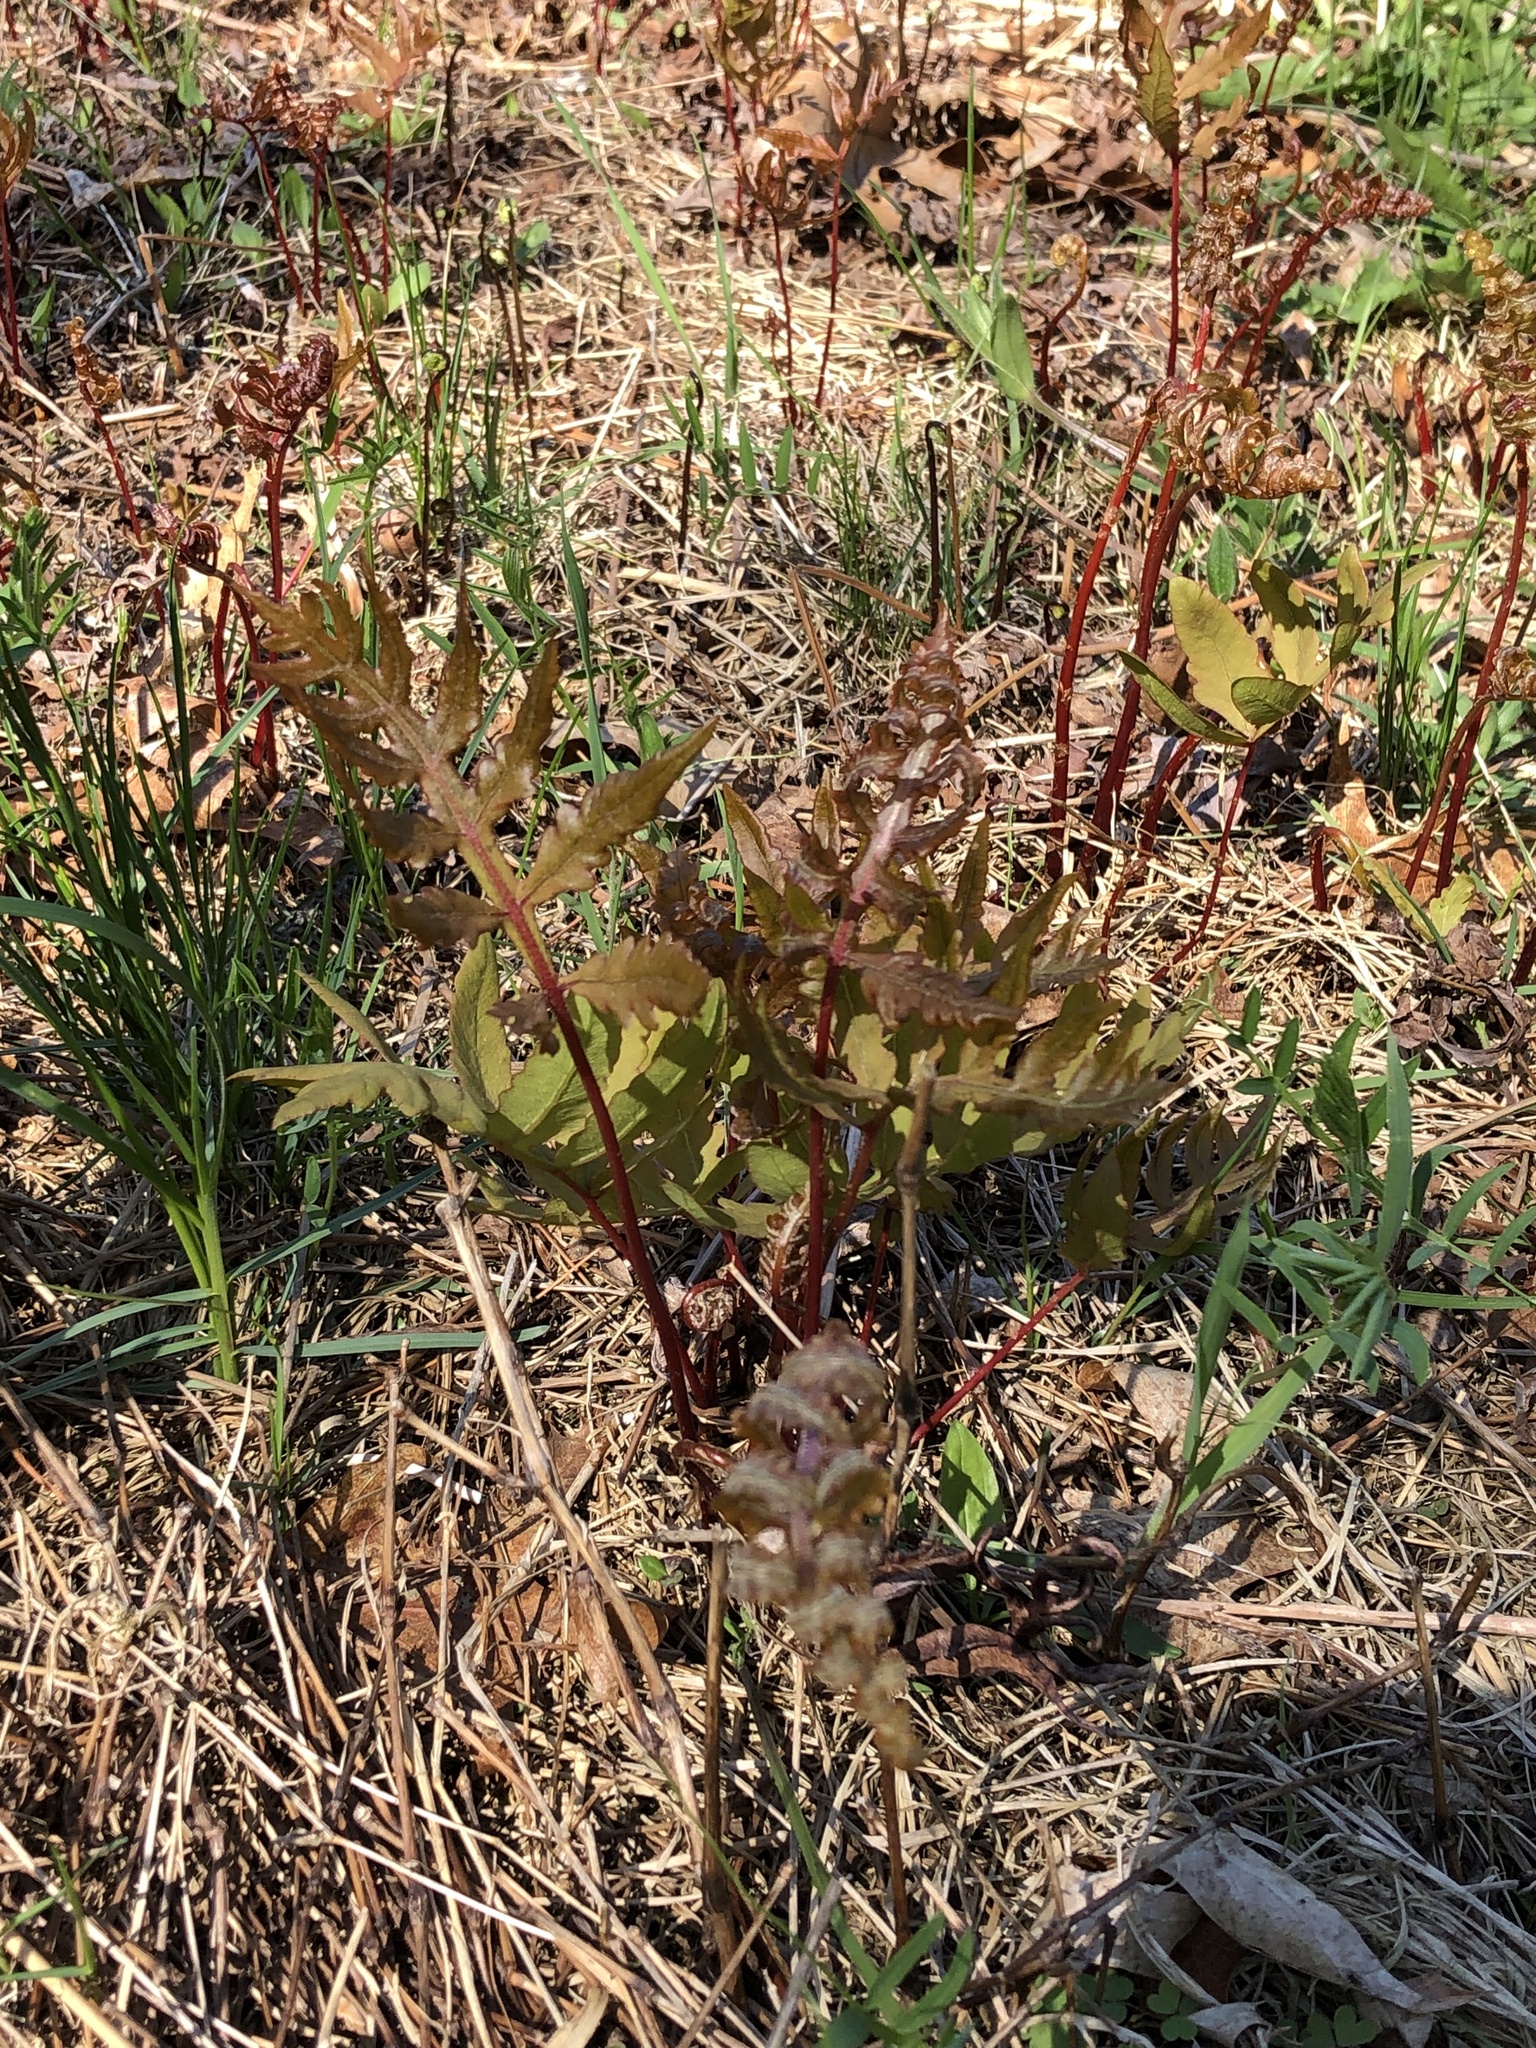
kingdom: Plantae
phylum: Tracheophyta
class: Polypodiopsida
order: Polypodiales
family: Onocleaceae
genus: Onoclea
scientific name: Onoclea sensibilis
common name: Sensitive fern
